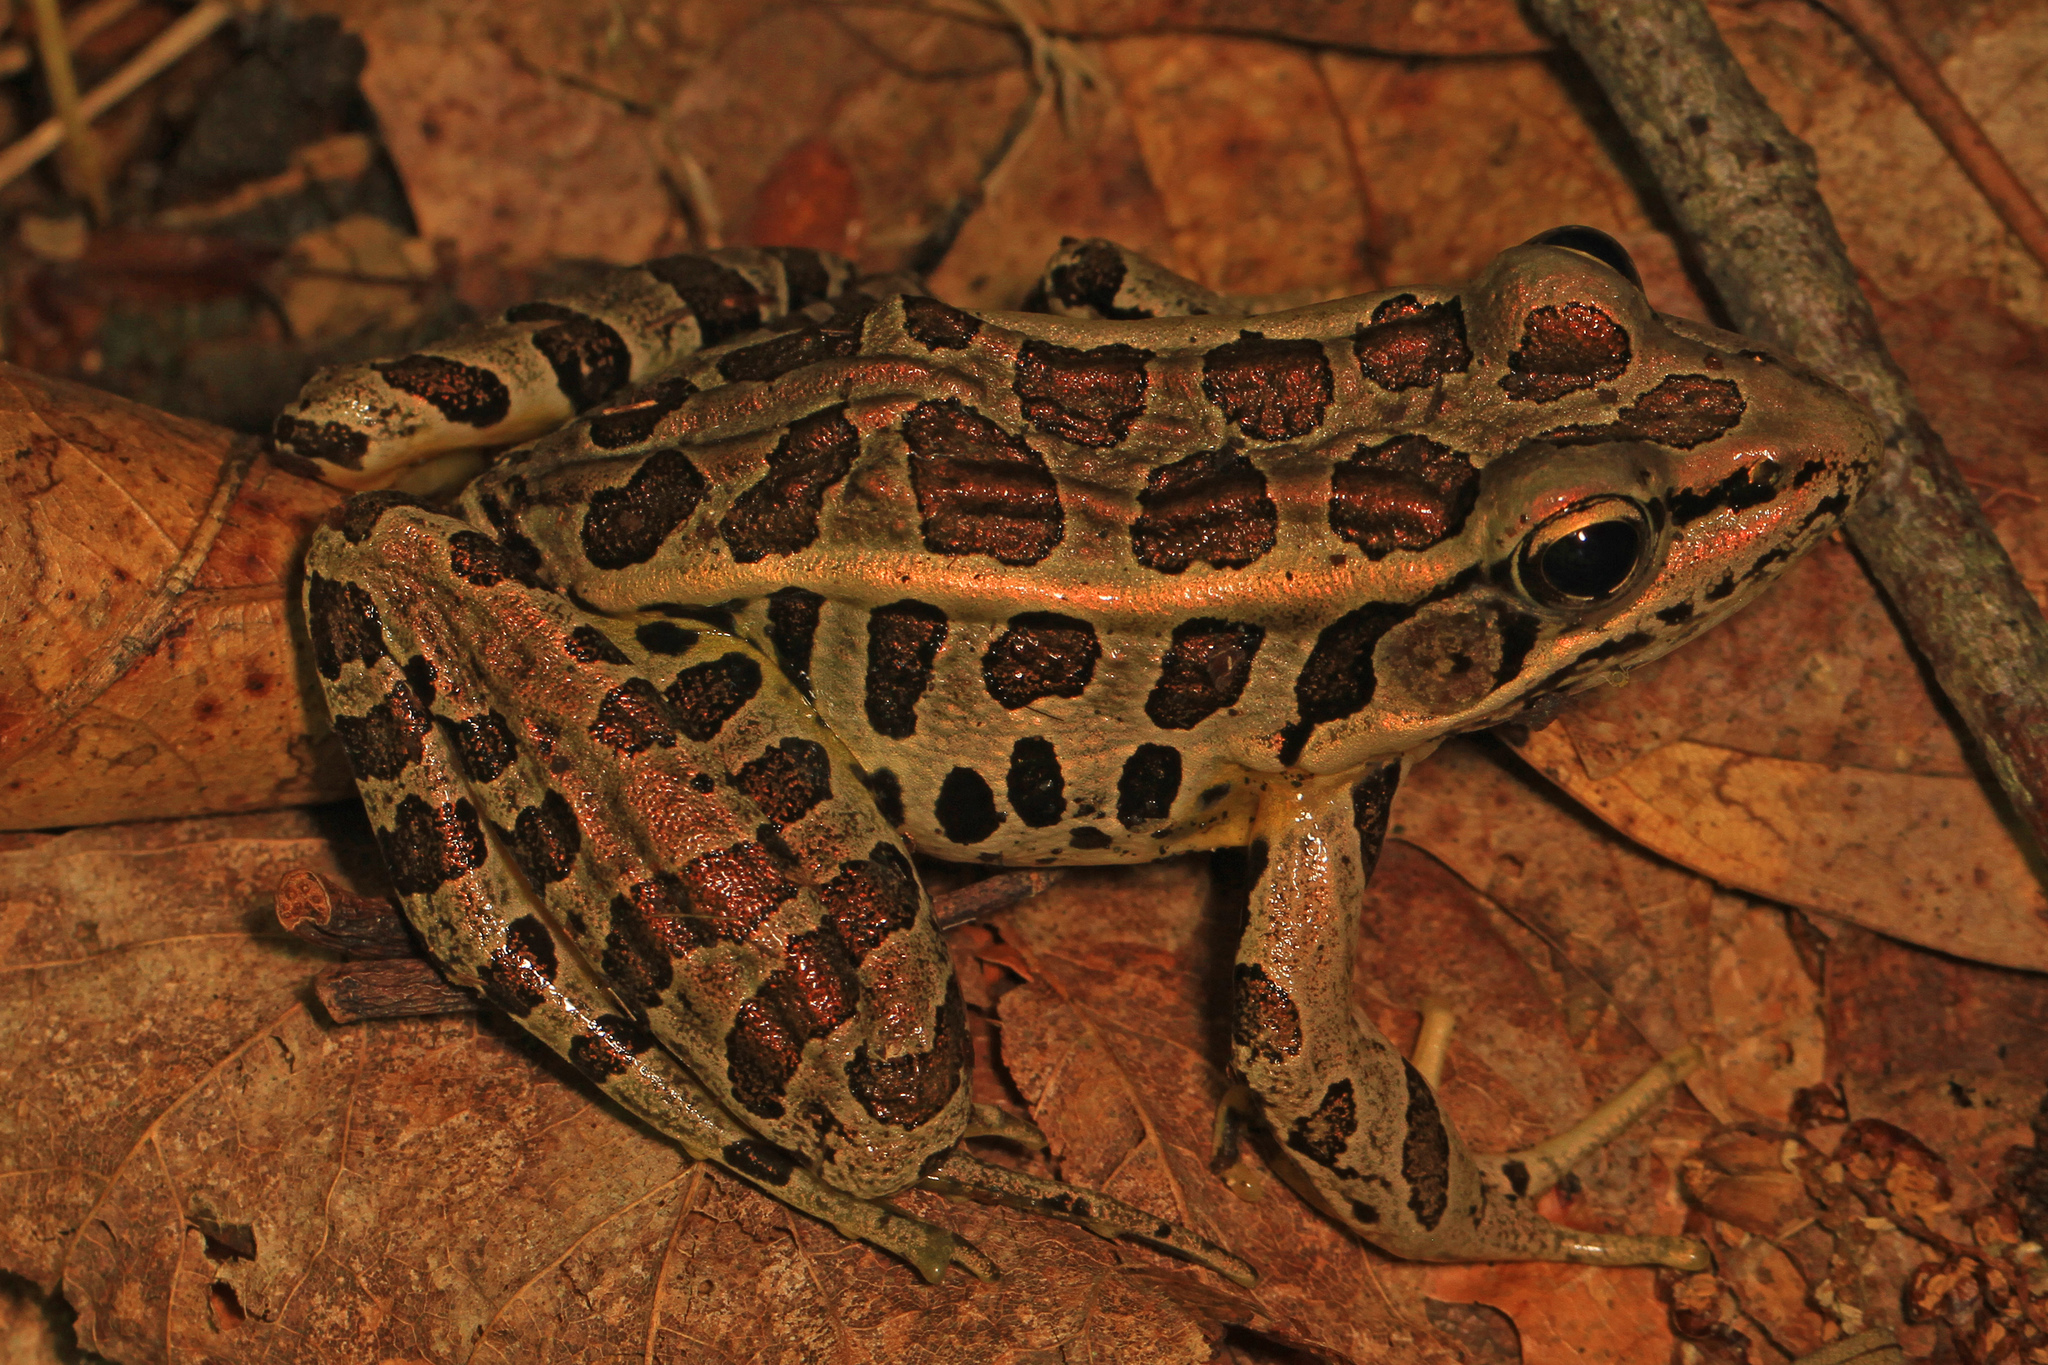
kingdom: Animalia
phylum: Chordata
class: Amphibia
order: Anura
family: Ranidae
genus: Lithobates
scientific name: Lithobates palustris
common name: Pickerel frog
